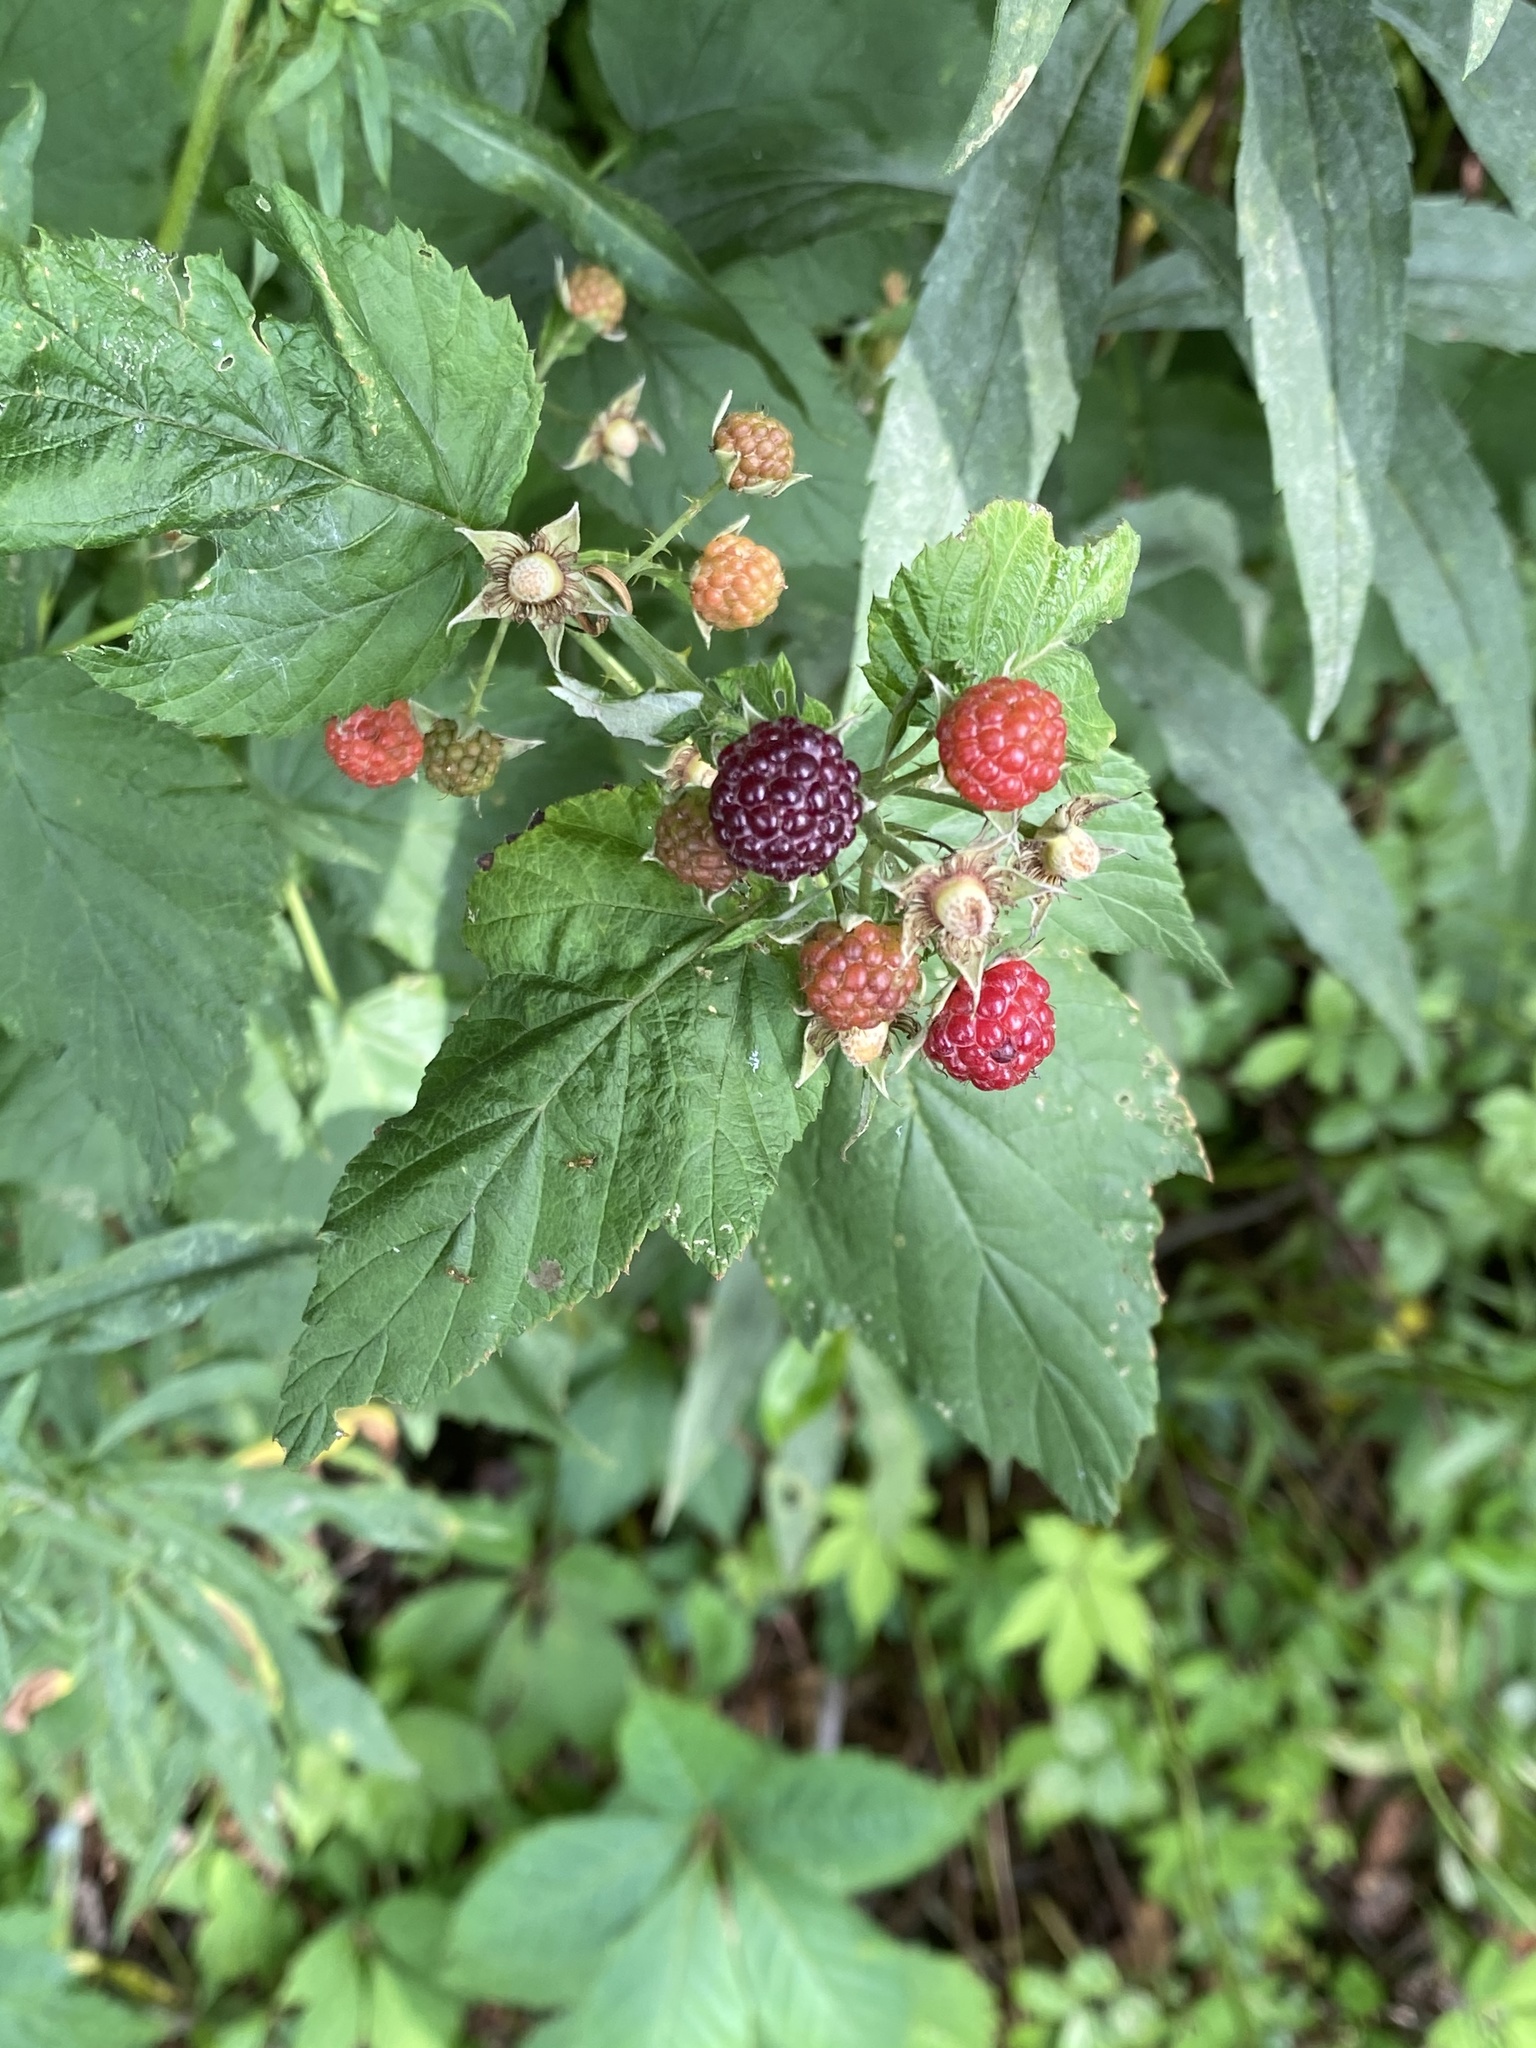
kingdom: Plantae
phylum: Tracheophyta
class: Magnoliopsida
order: Rosales
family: Rosaceae
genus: Rubus
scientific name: Rubus occidentalis
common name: Black raspberry
